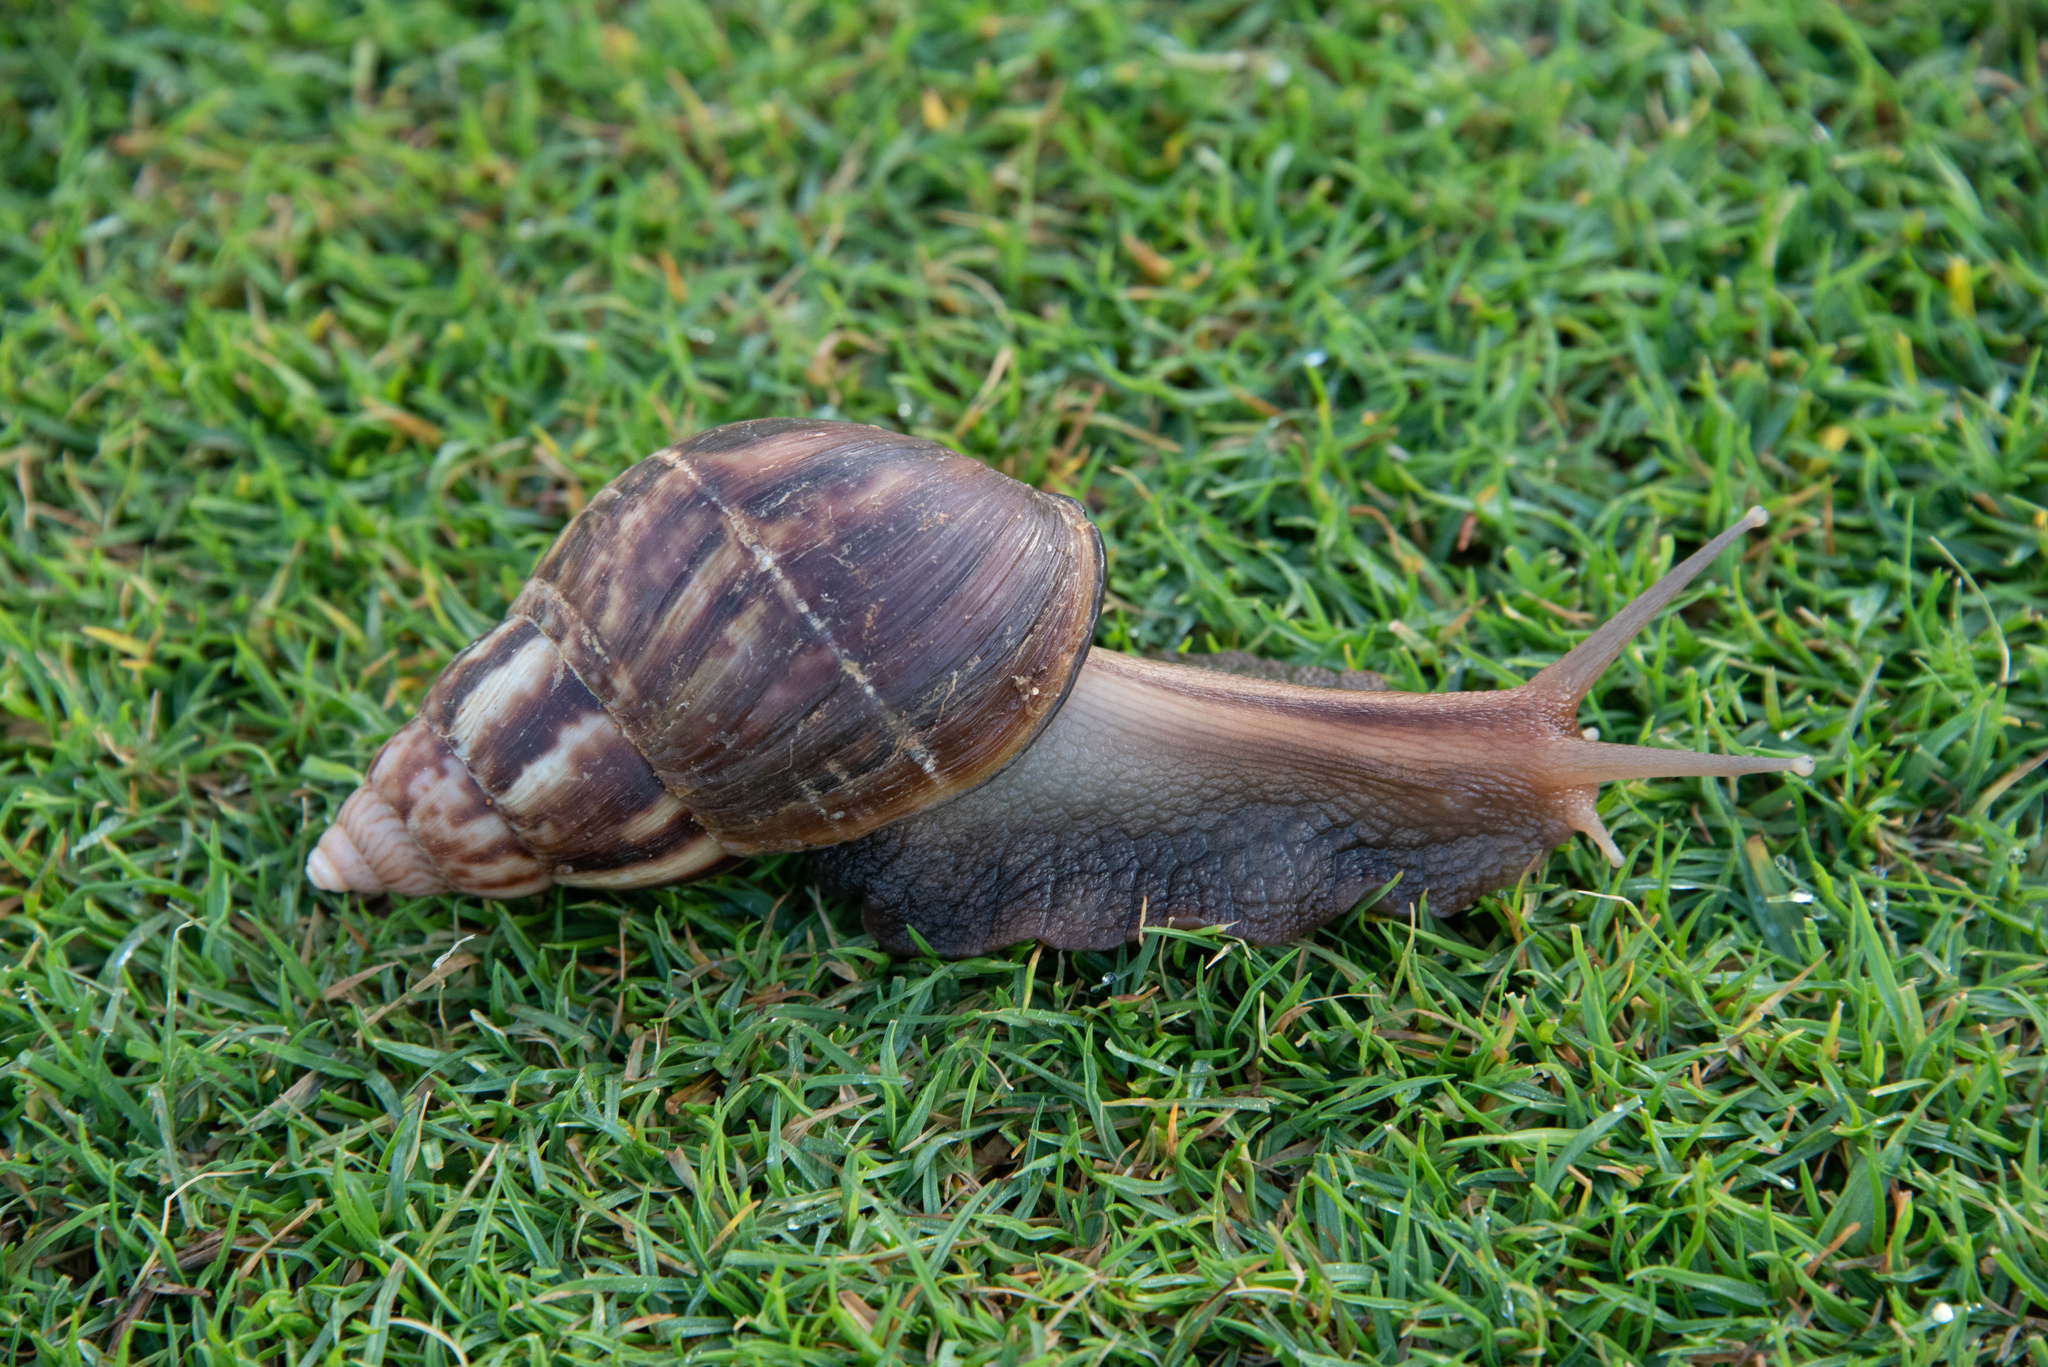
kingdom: Animalia
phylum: Mollusca
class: Gastropoda
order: Stylommatophora
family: Achatinidae
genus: Lissachatina
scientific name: Lissachatina fulica
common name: Giant african snail
